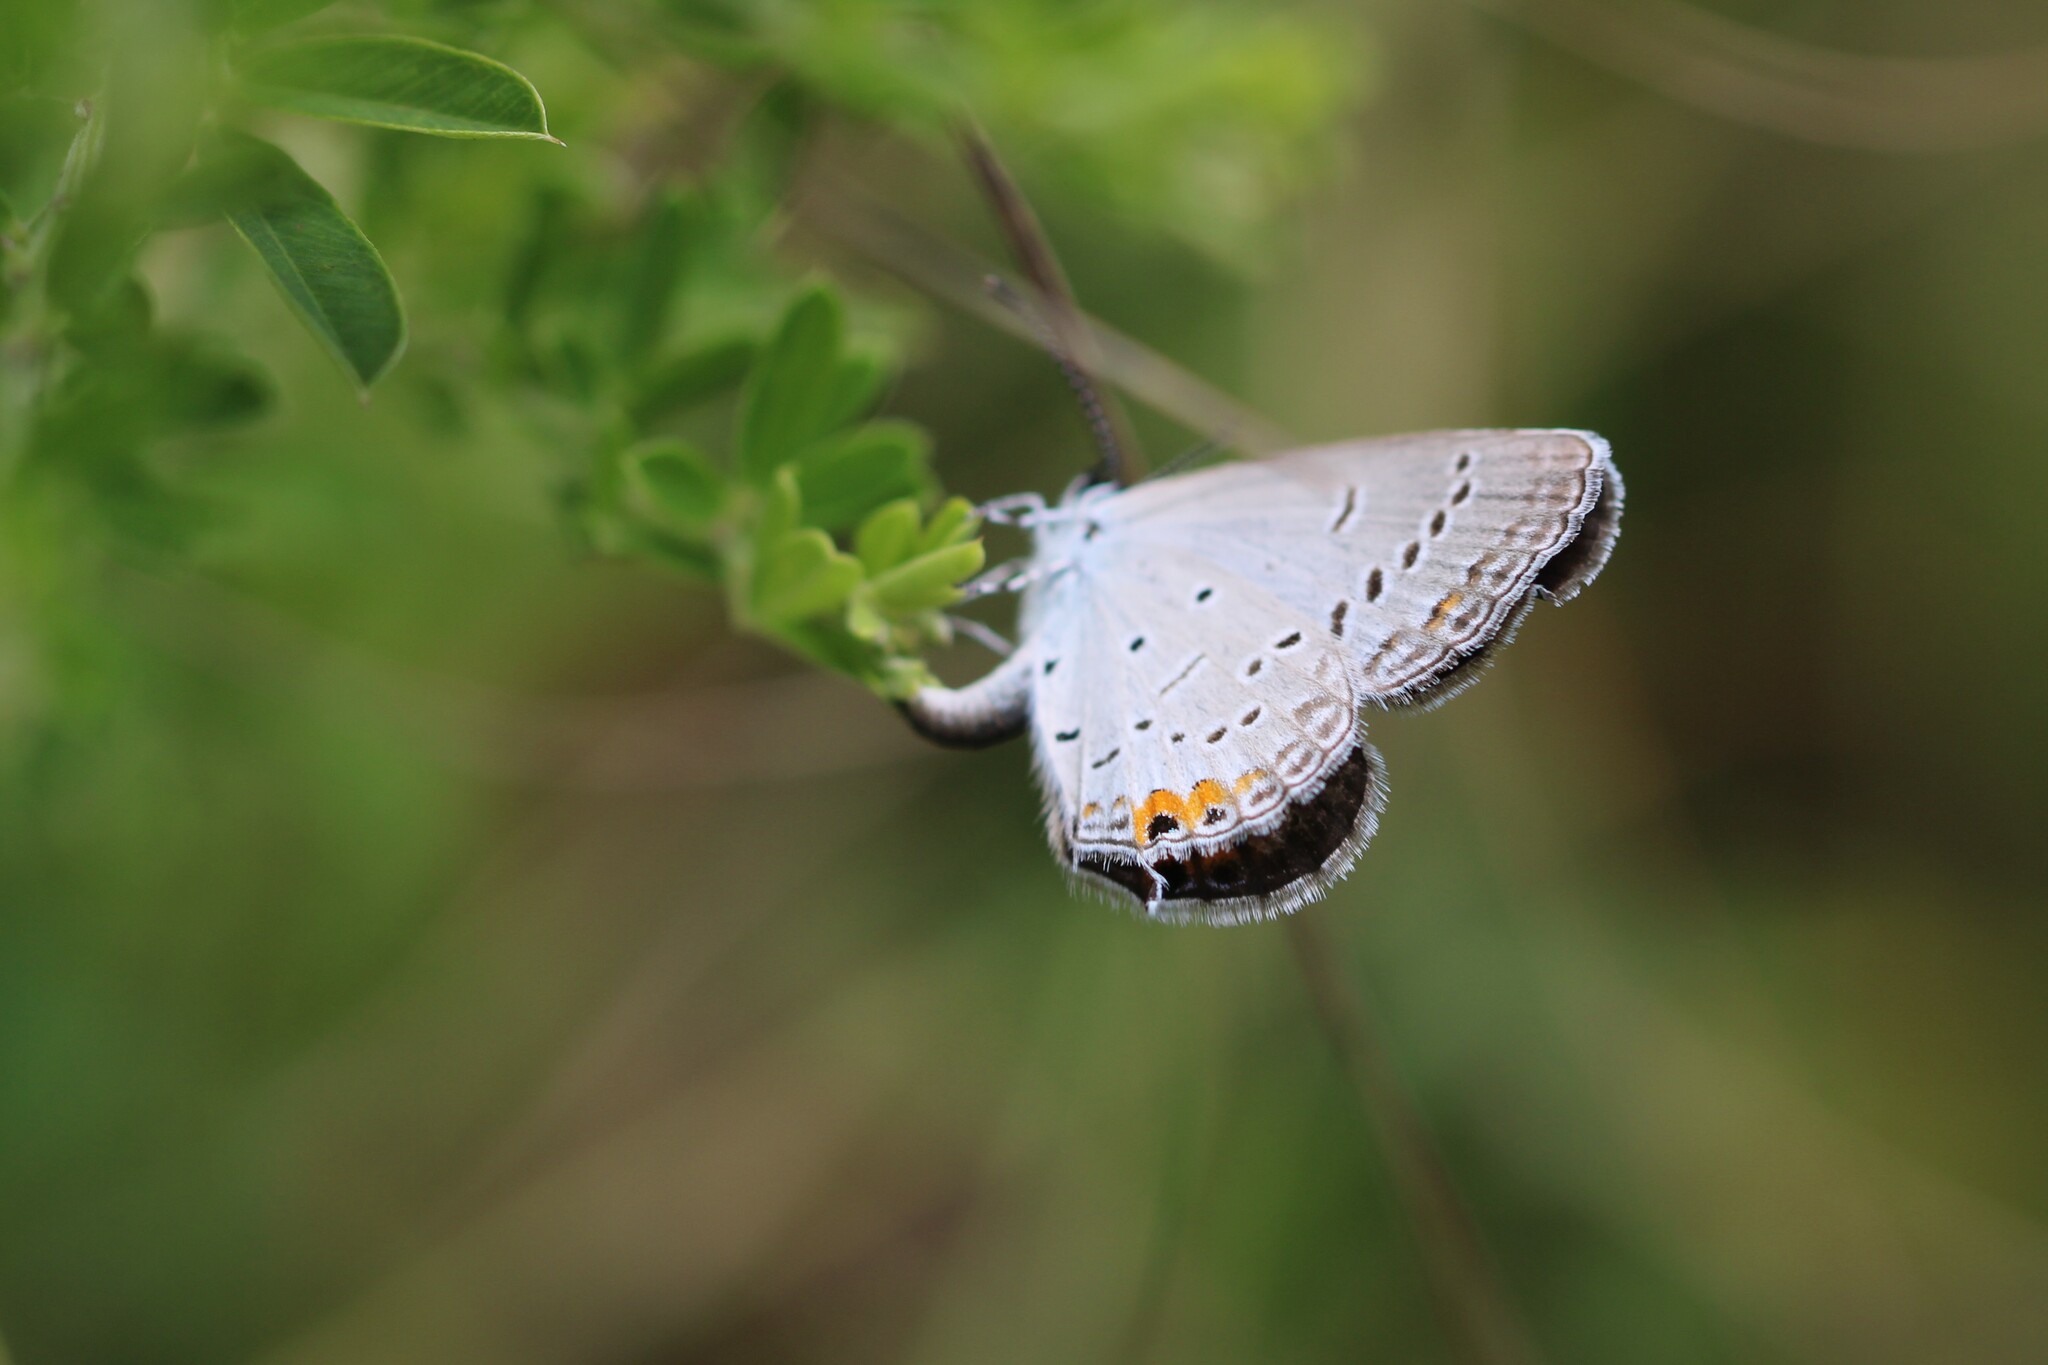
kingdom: Animalia
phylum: Arthropoda
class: Insecta
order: Lepidoptera
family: Lycaenidae
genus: Elkalyce
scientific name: Elkalyce comyntas
